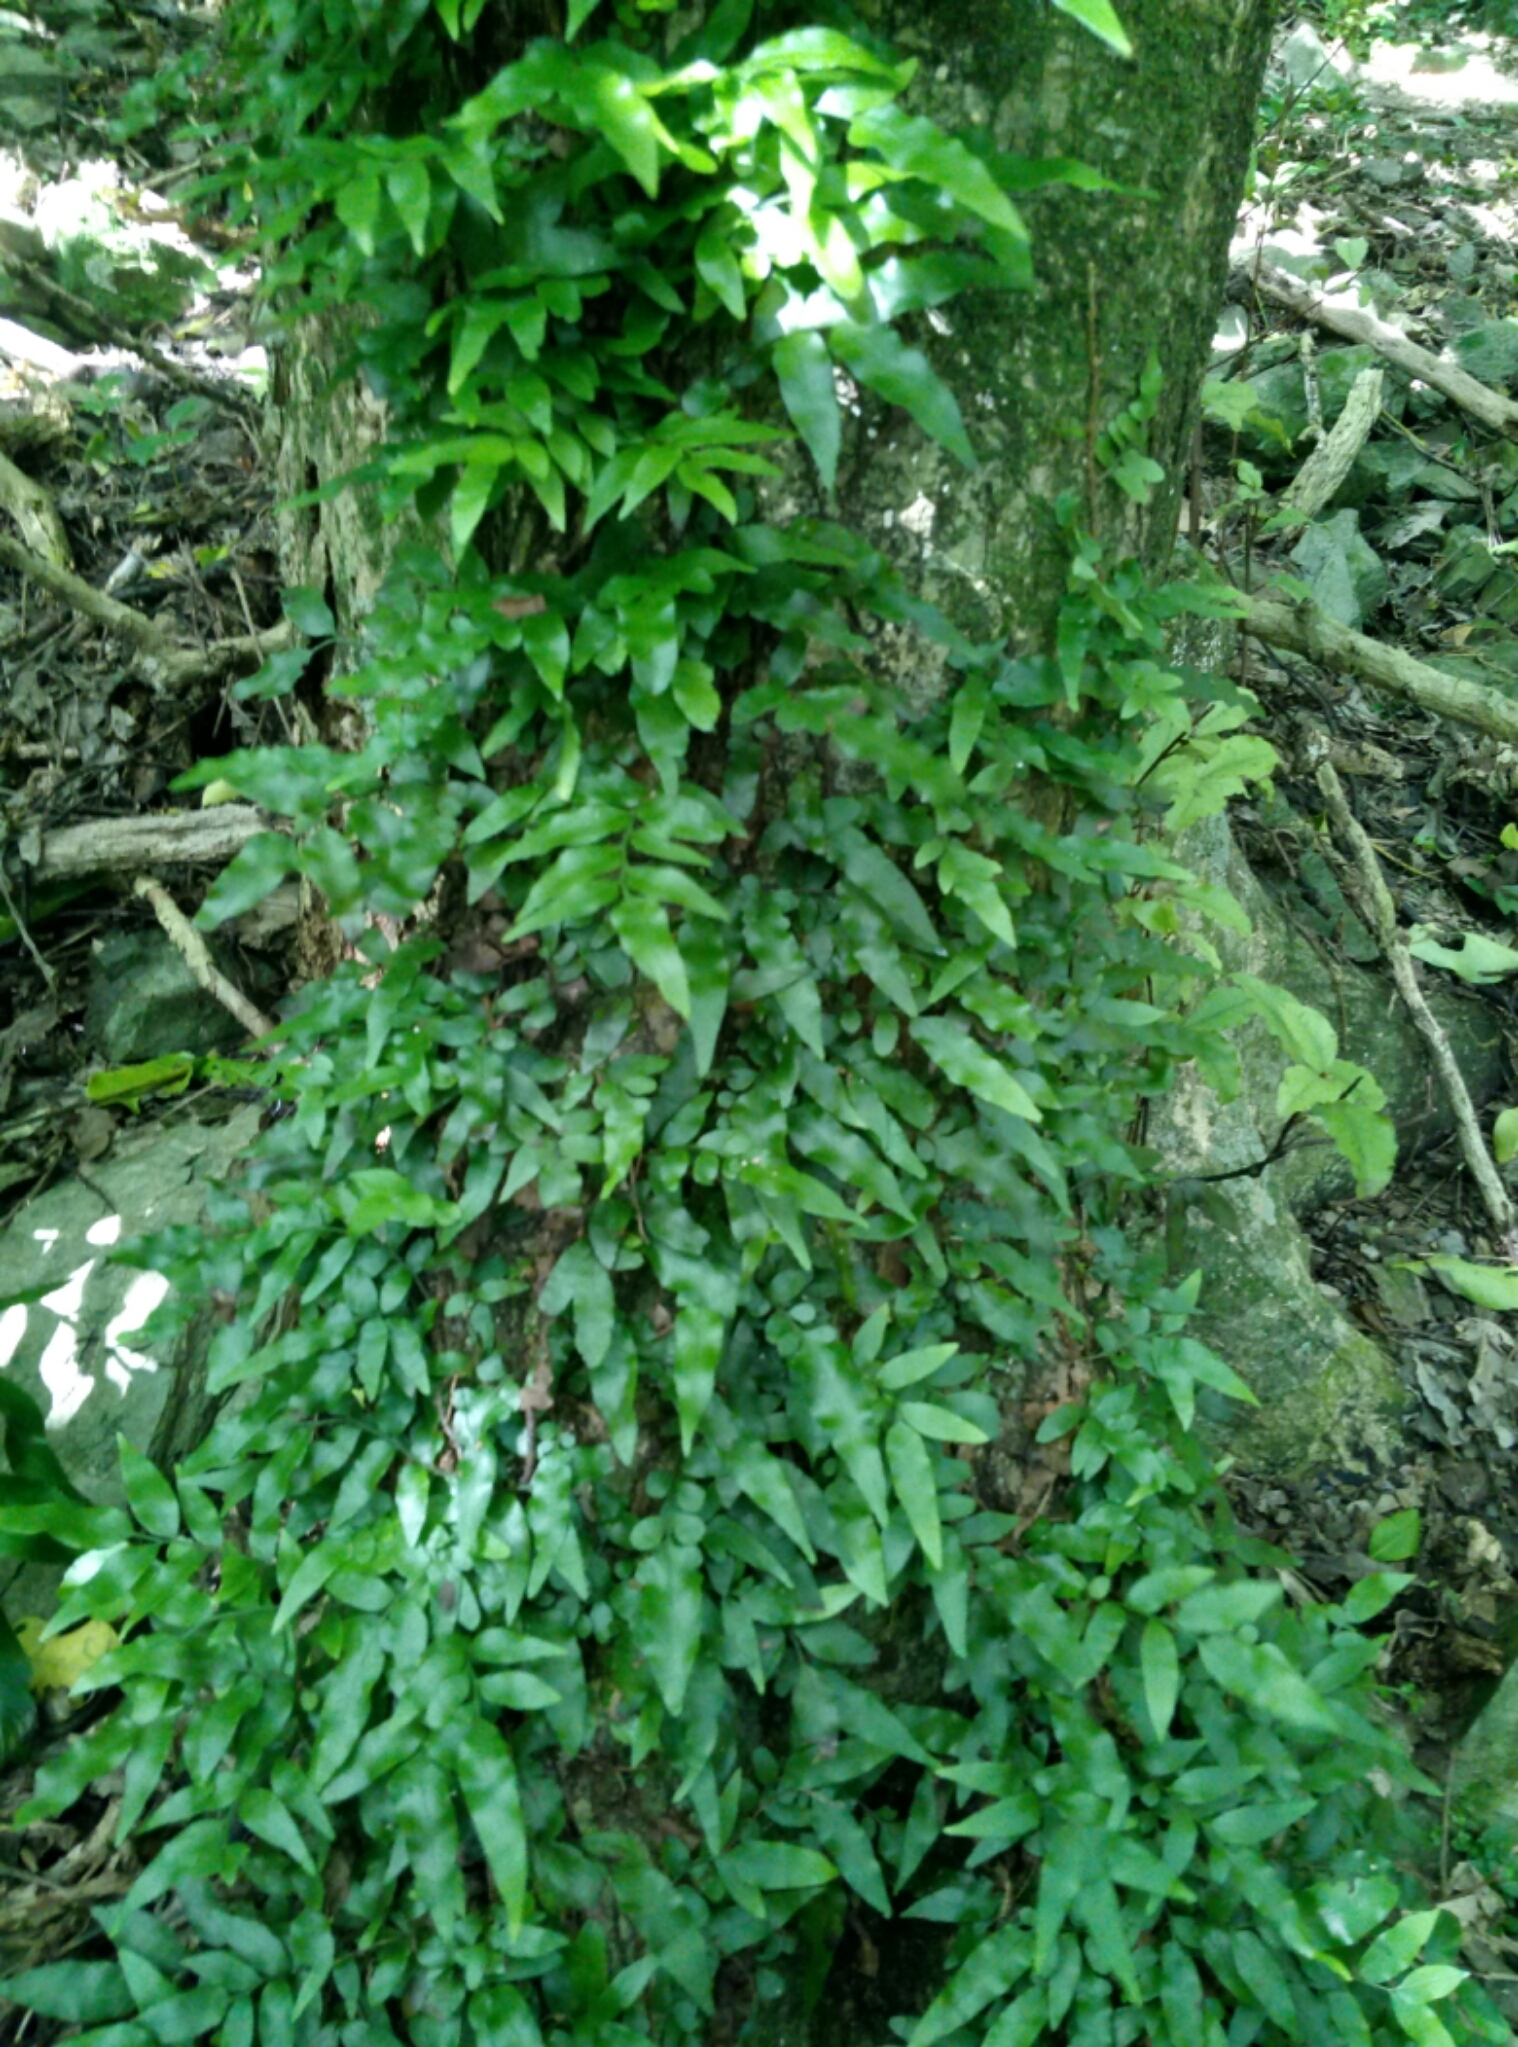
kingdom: Plantae
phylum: Tracheophyta
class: Polypodiopsida
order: Polypodiales
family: Tectariaceae
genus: Arthropteris
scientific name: Arthropteris tenella
